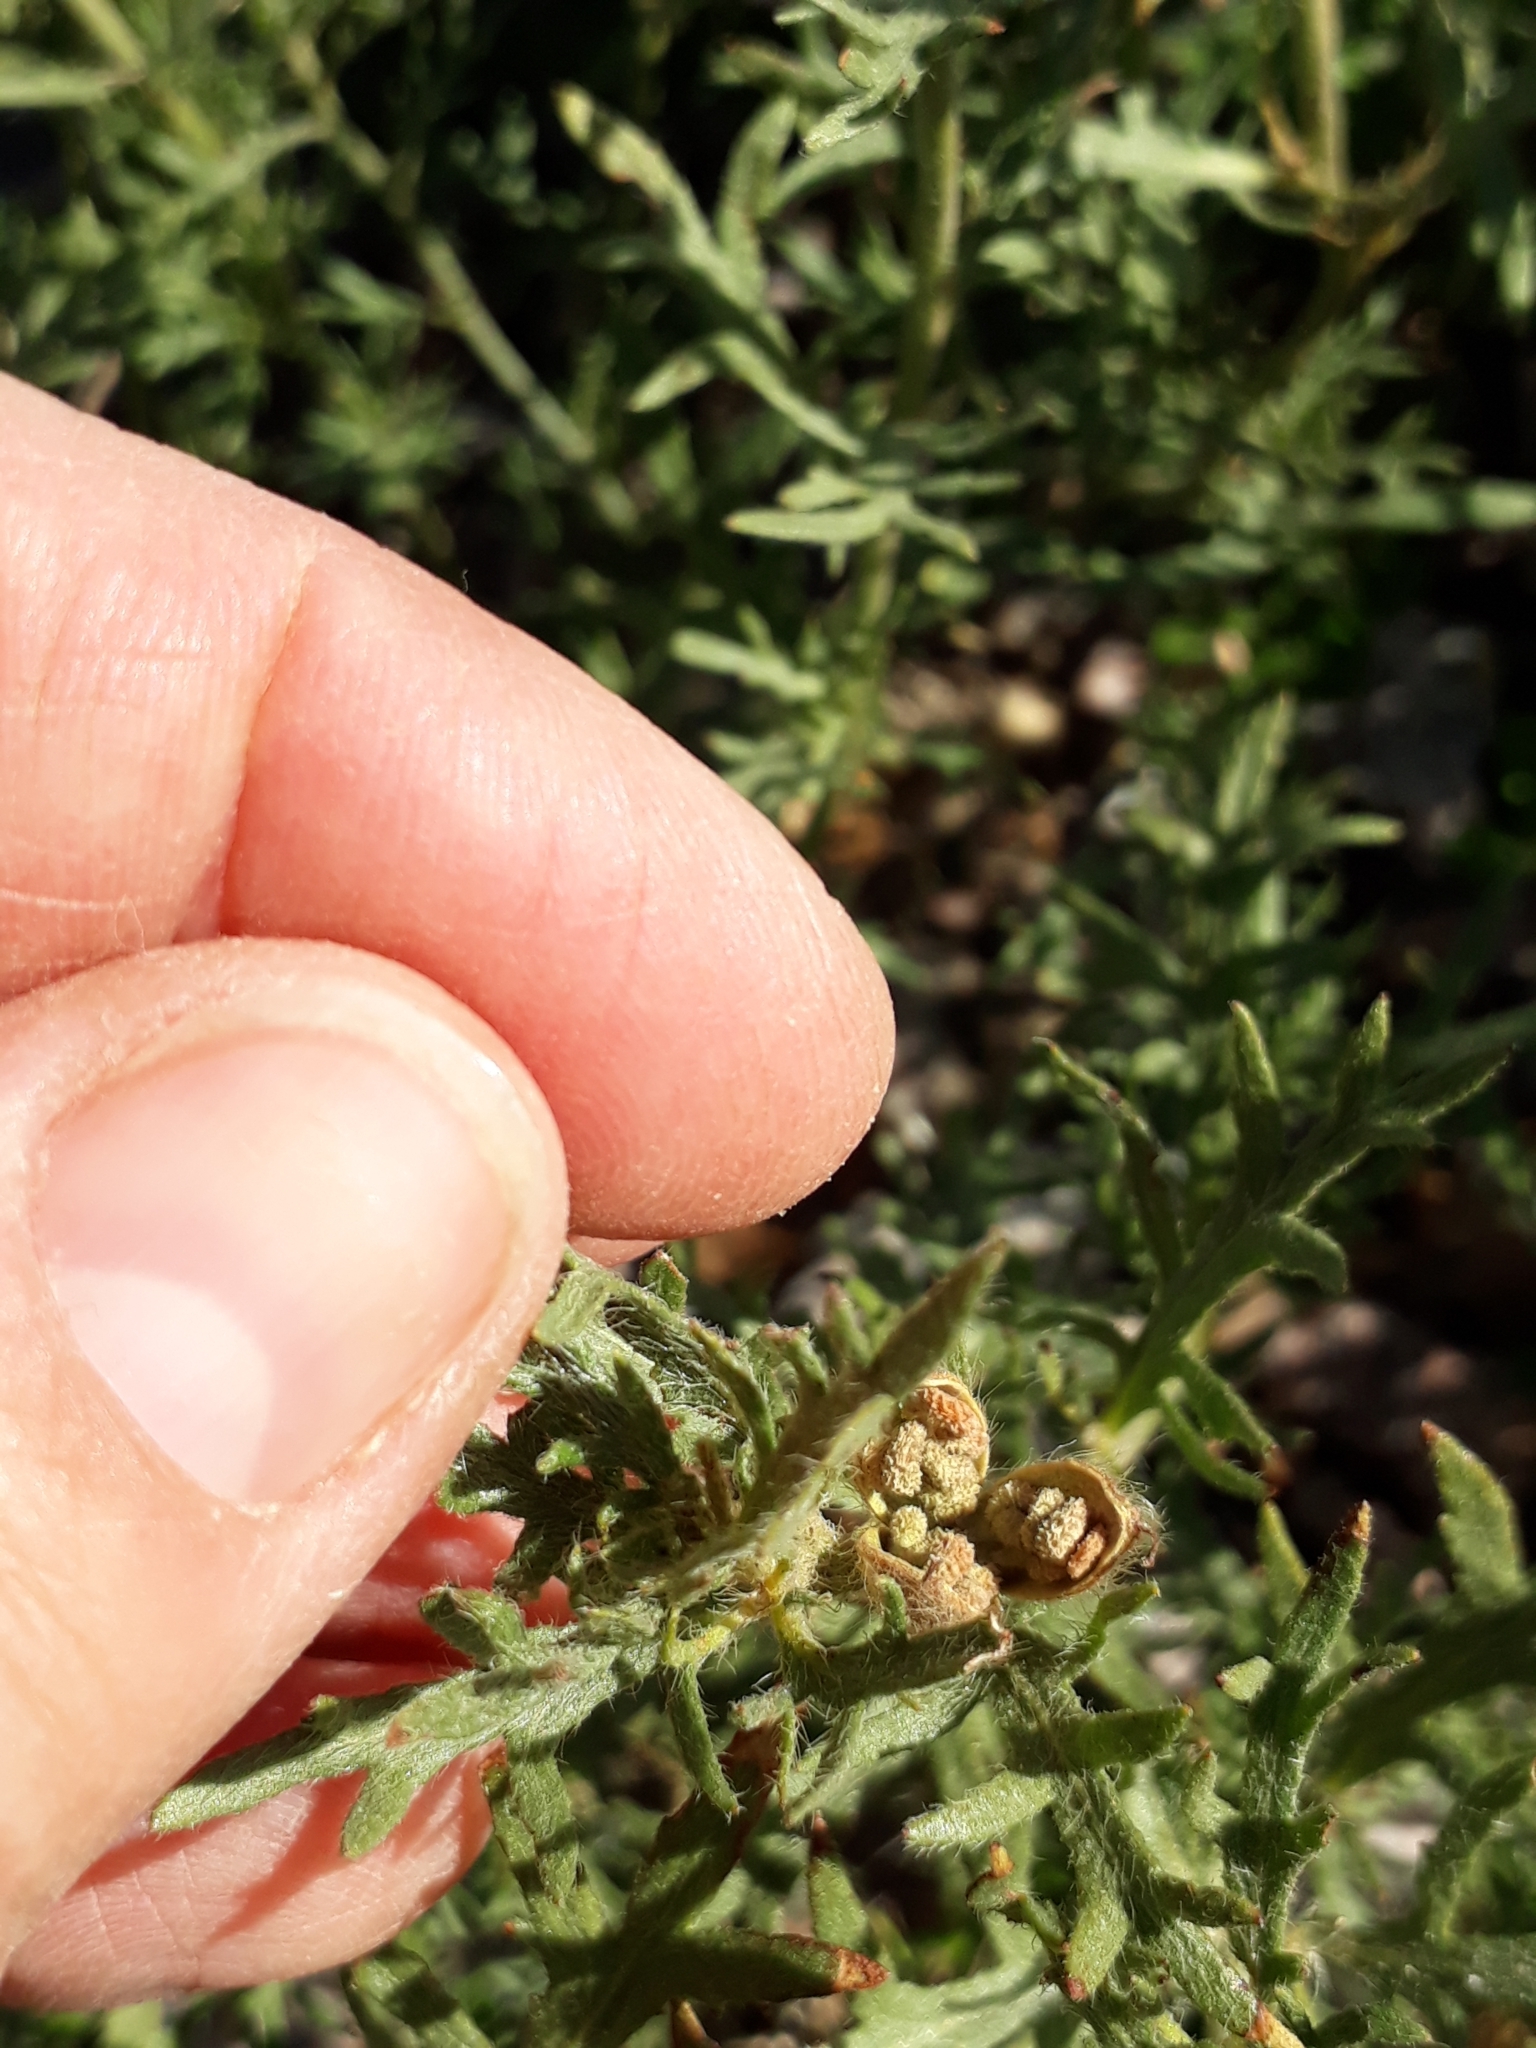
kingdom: Plantae
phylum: Tracheophyta
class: Magnoliopsida
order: Malpighiales
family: Turneraceae
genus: Turnera
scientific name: Turnera sidoides
